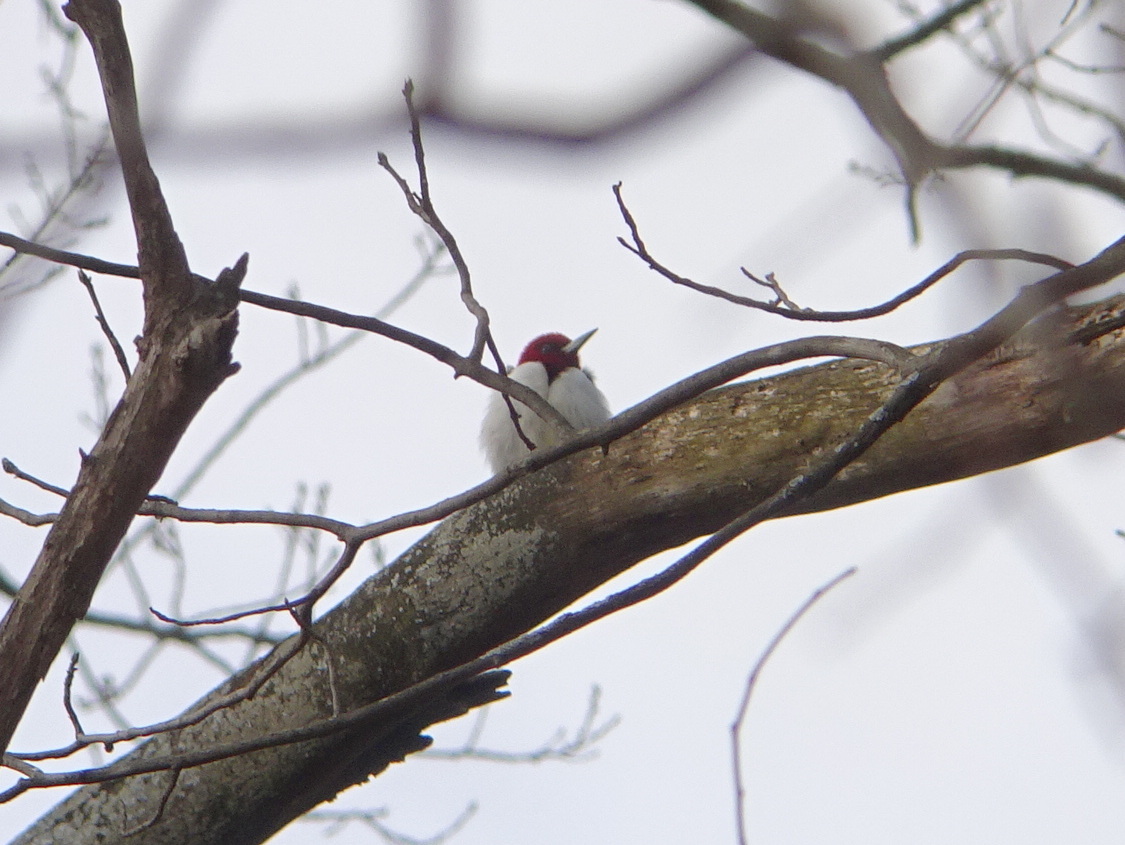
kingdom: Animalia
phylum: Chordata
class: Aves
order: Piciformes
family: Picidae
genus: Melanerpes
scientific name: Melanerpes erythrocephalus
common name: Red-headed woodpecker
